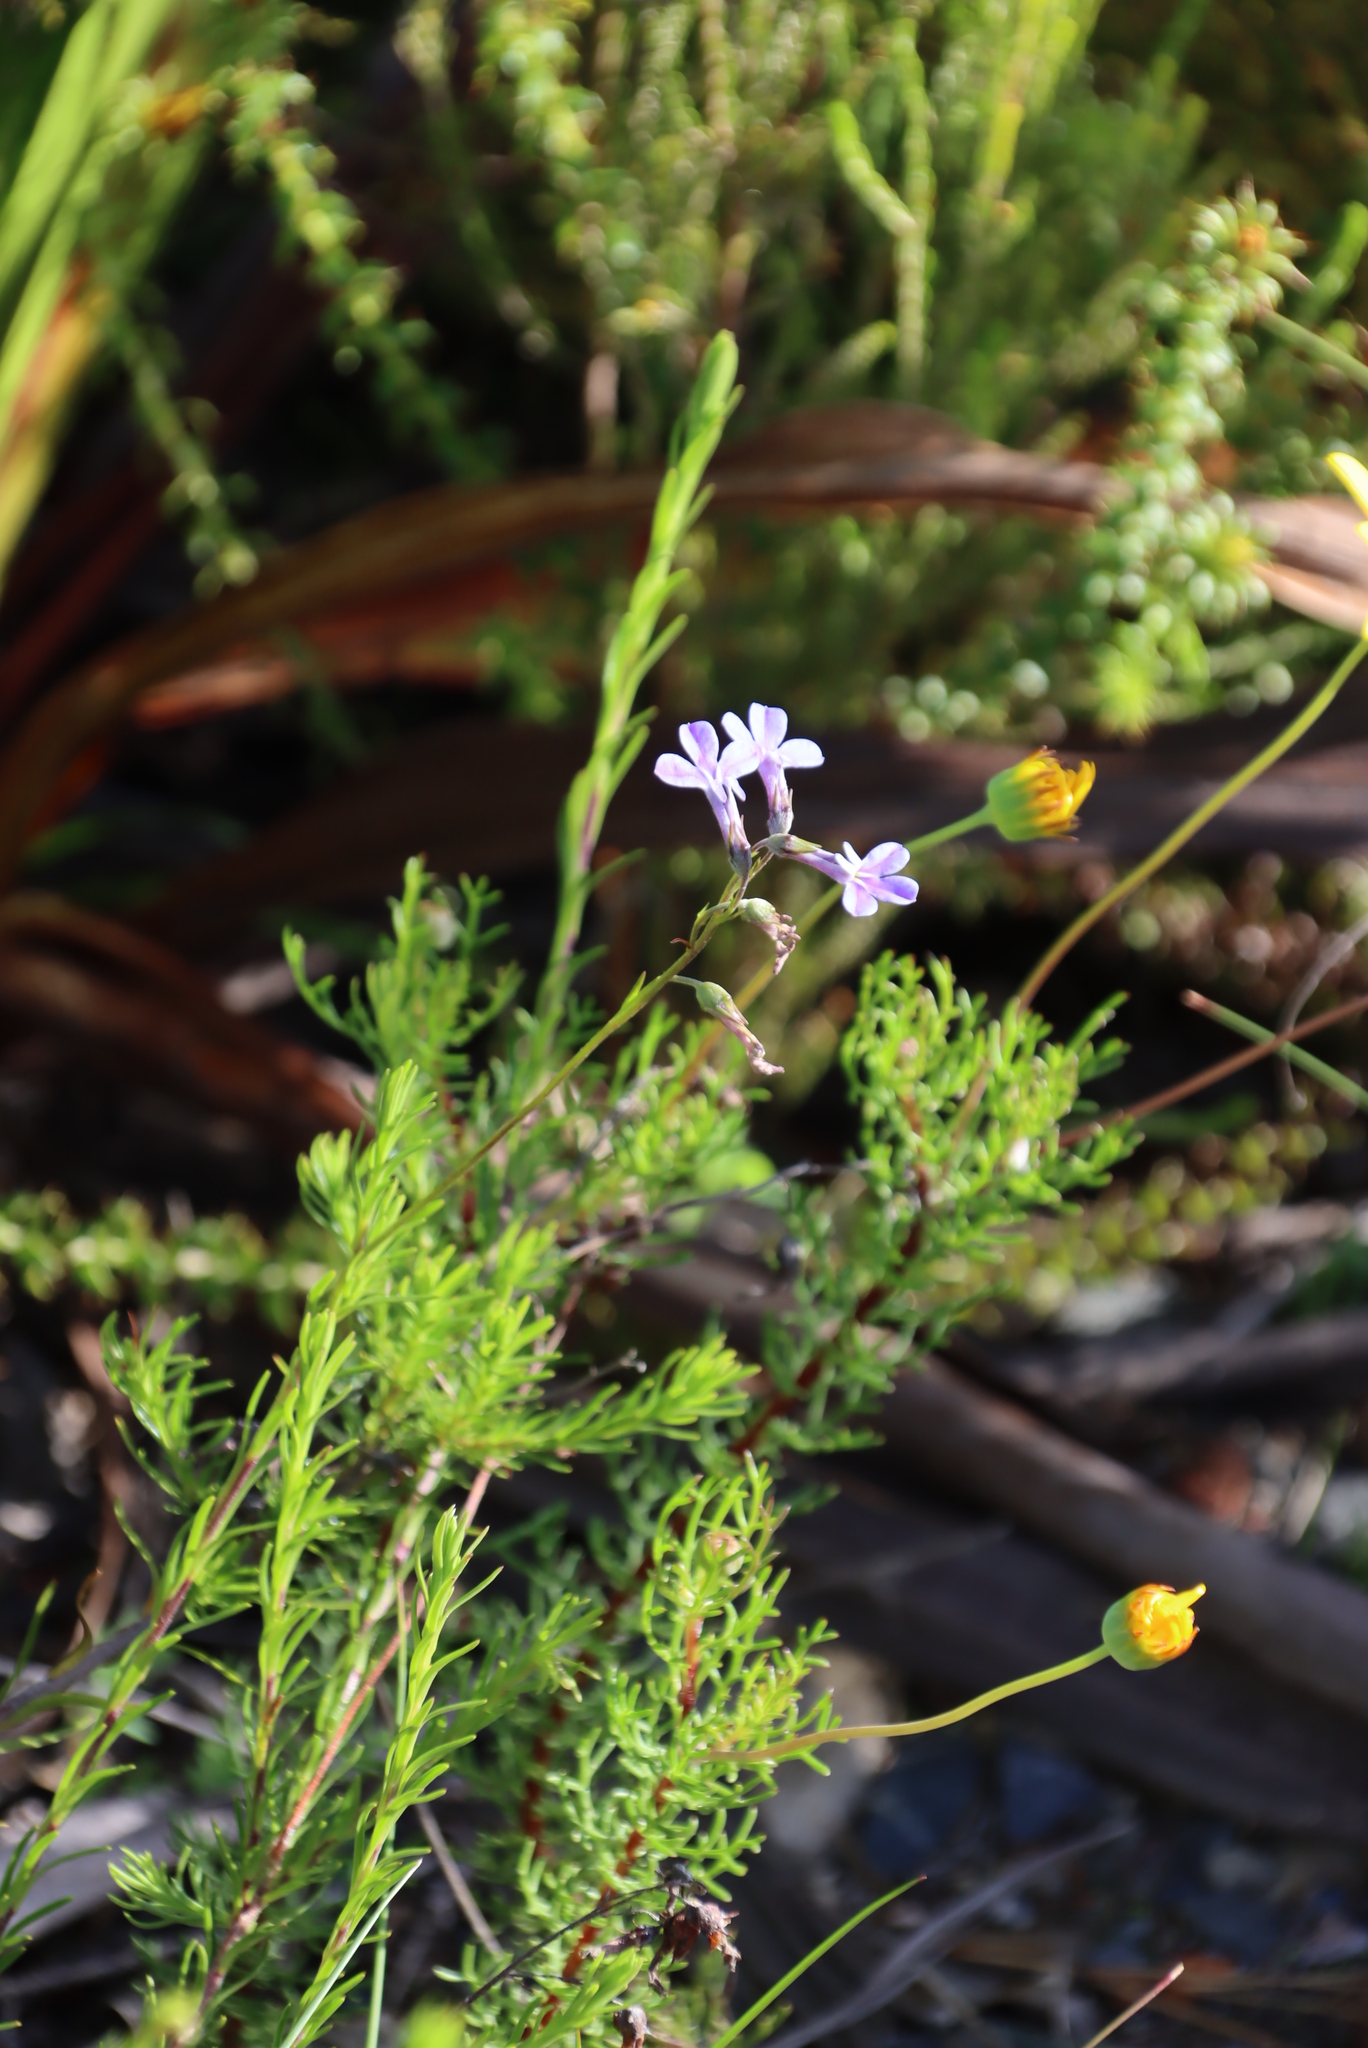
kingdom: Plantae
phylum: Tracheophyta
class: Magnoliopsida
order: Asterales
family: Campanulaceae
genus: Lobelia
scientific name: Lobelia pinifolia
